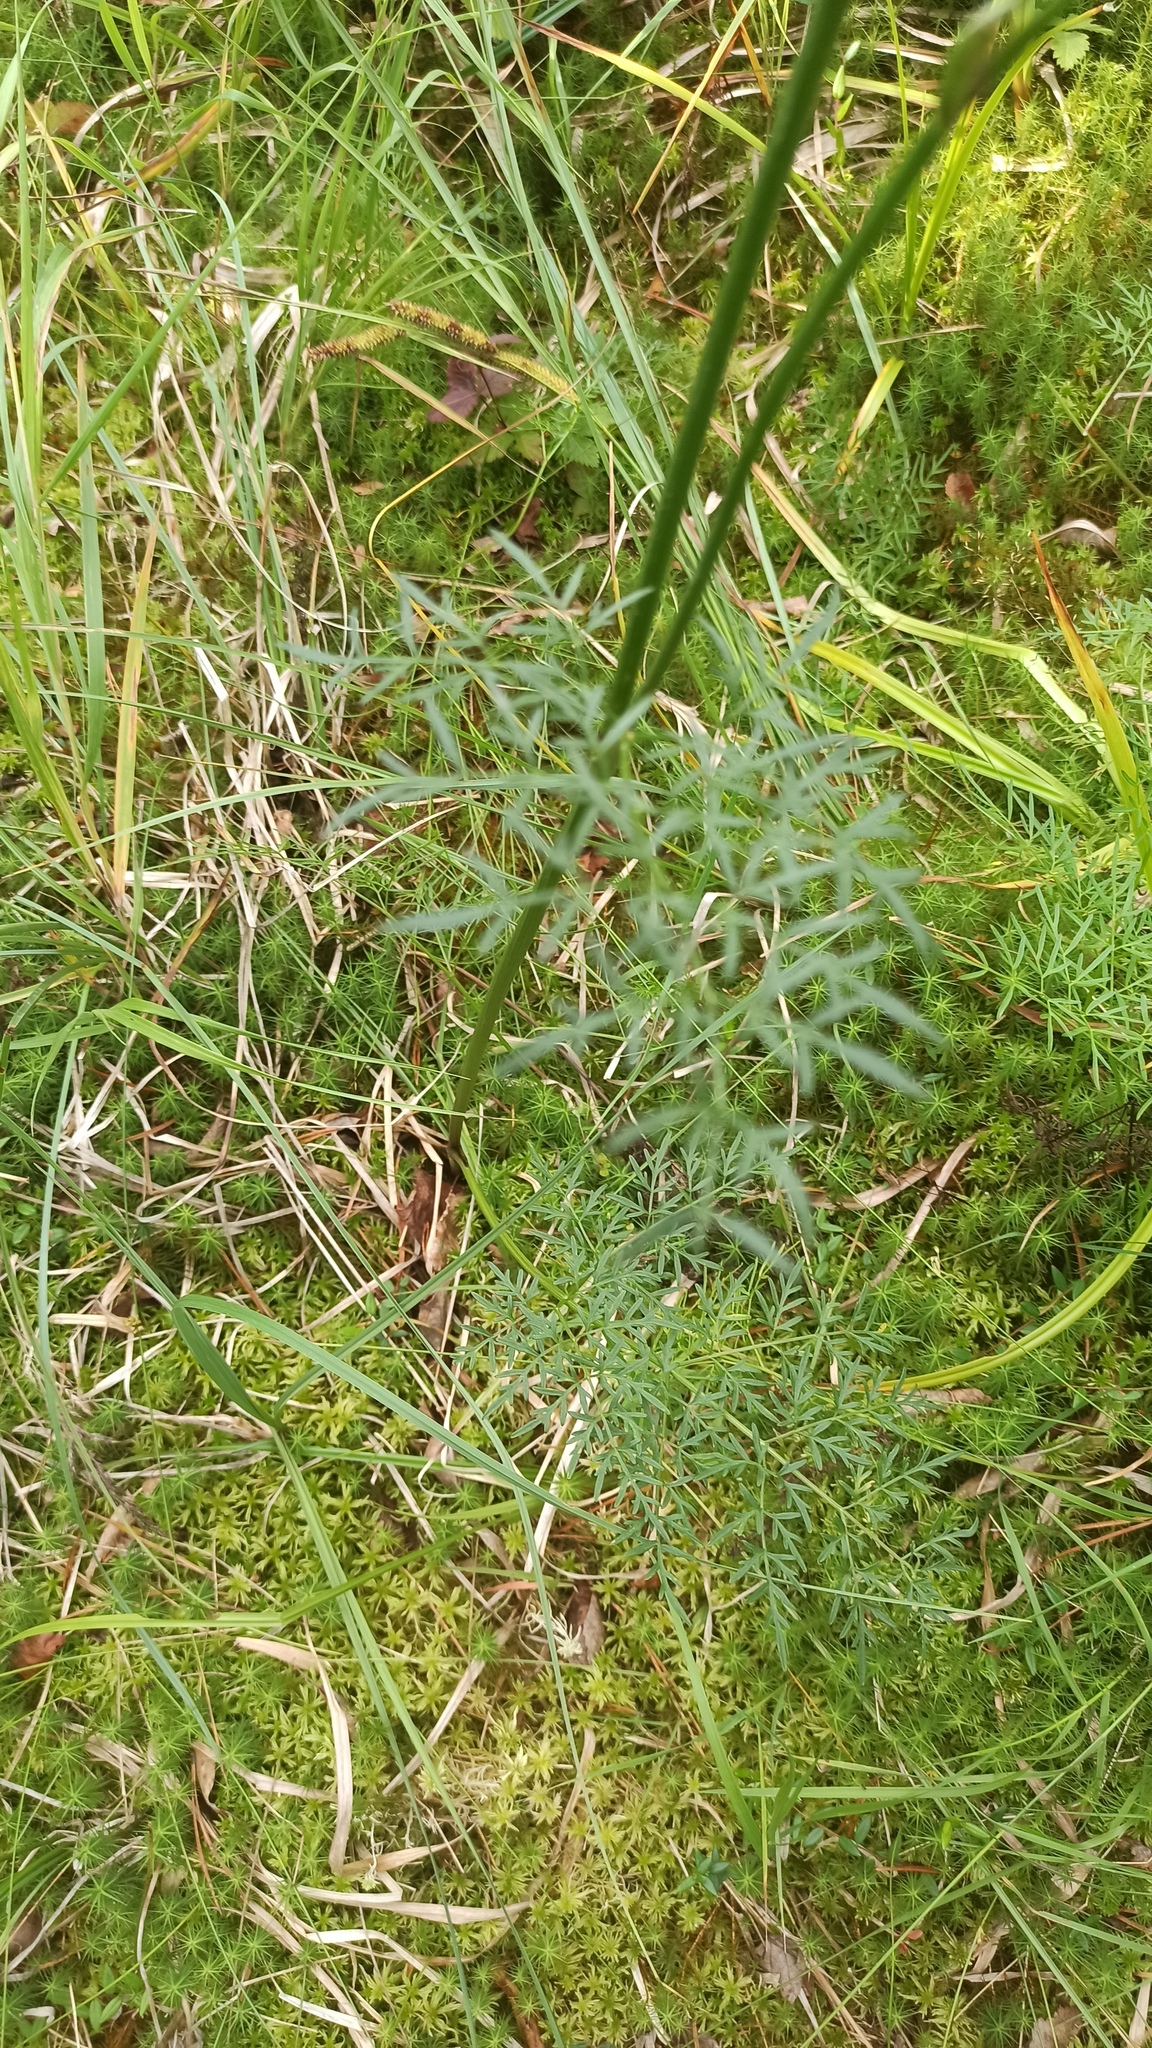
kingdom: Plantae
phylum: Tracheophyta
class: Magnoliopsida
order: Apiales
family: Apiaceae
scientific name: Apiaceae
